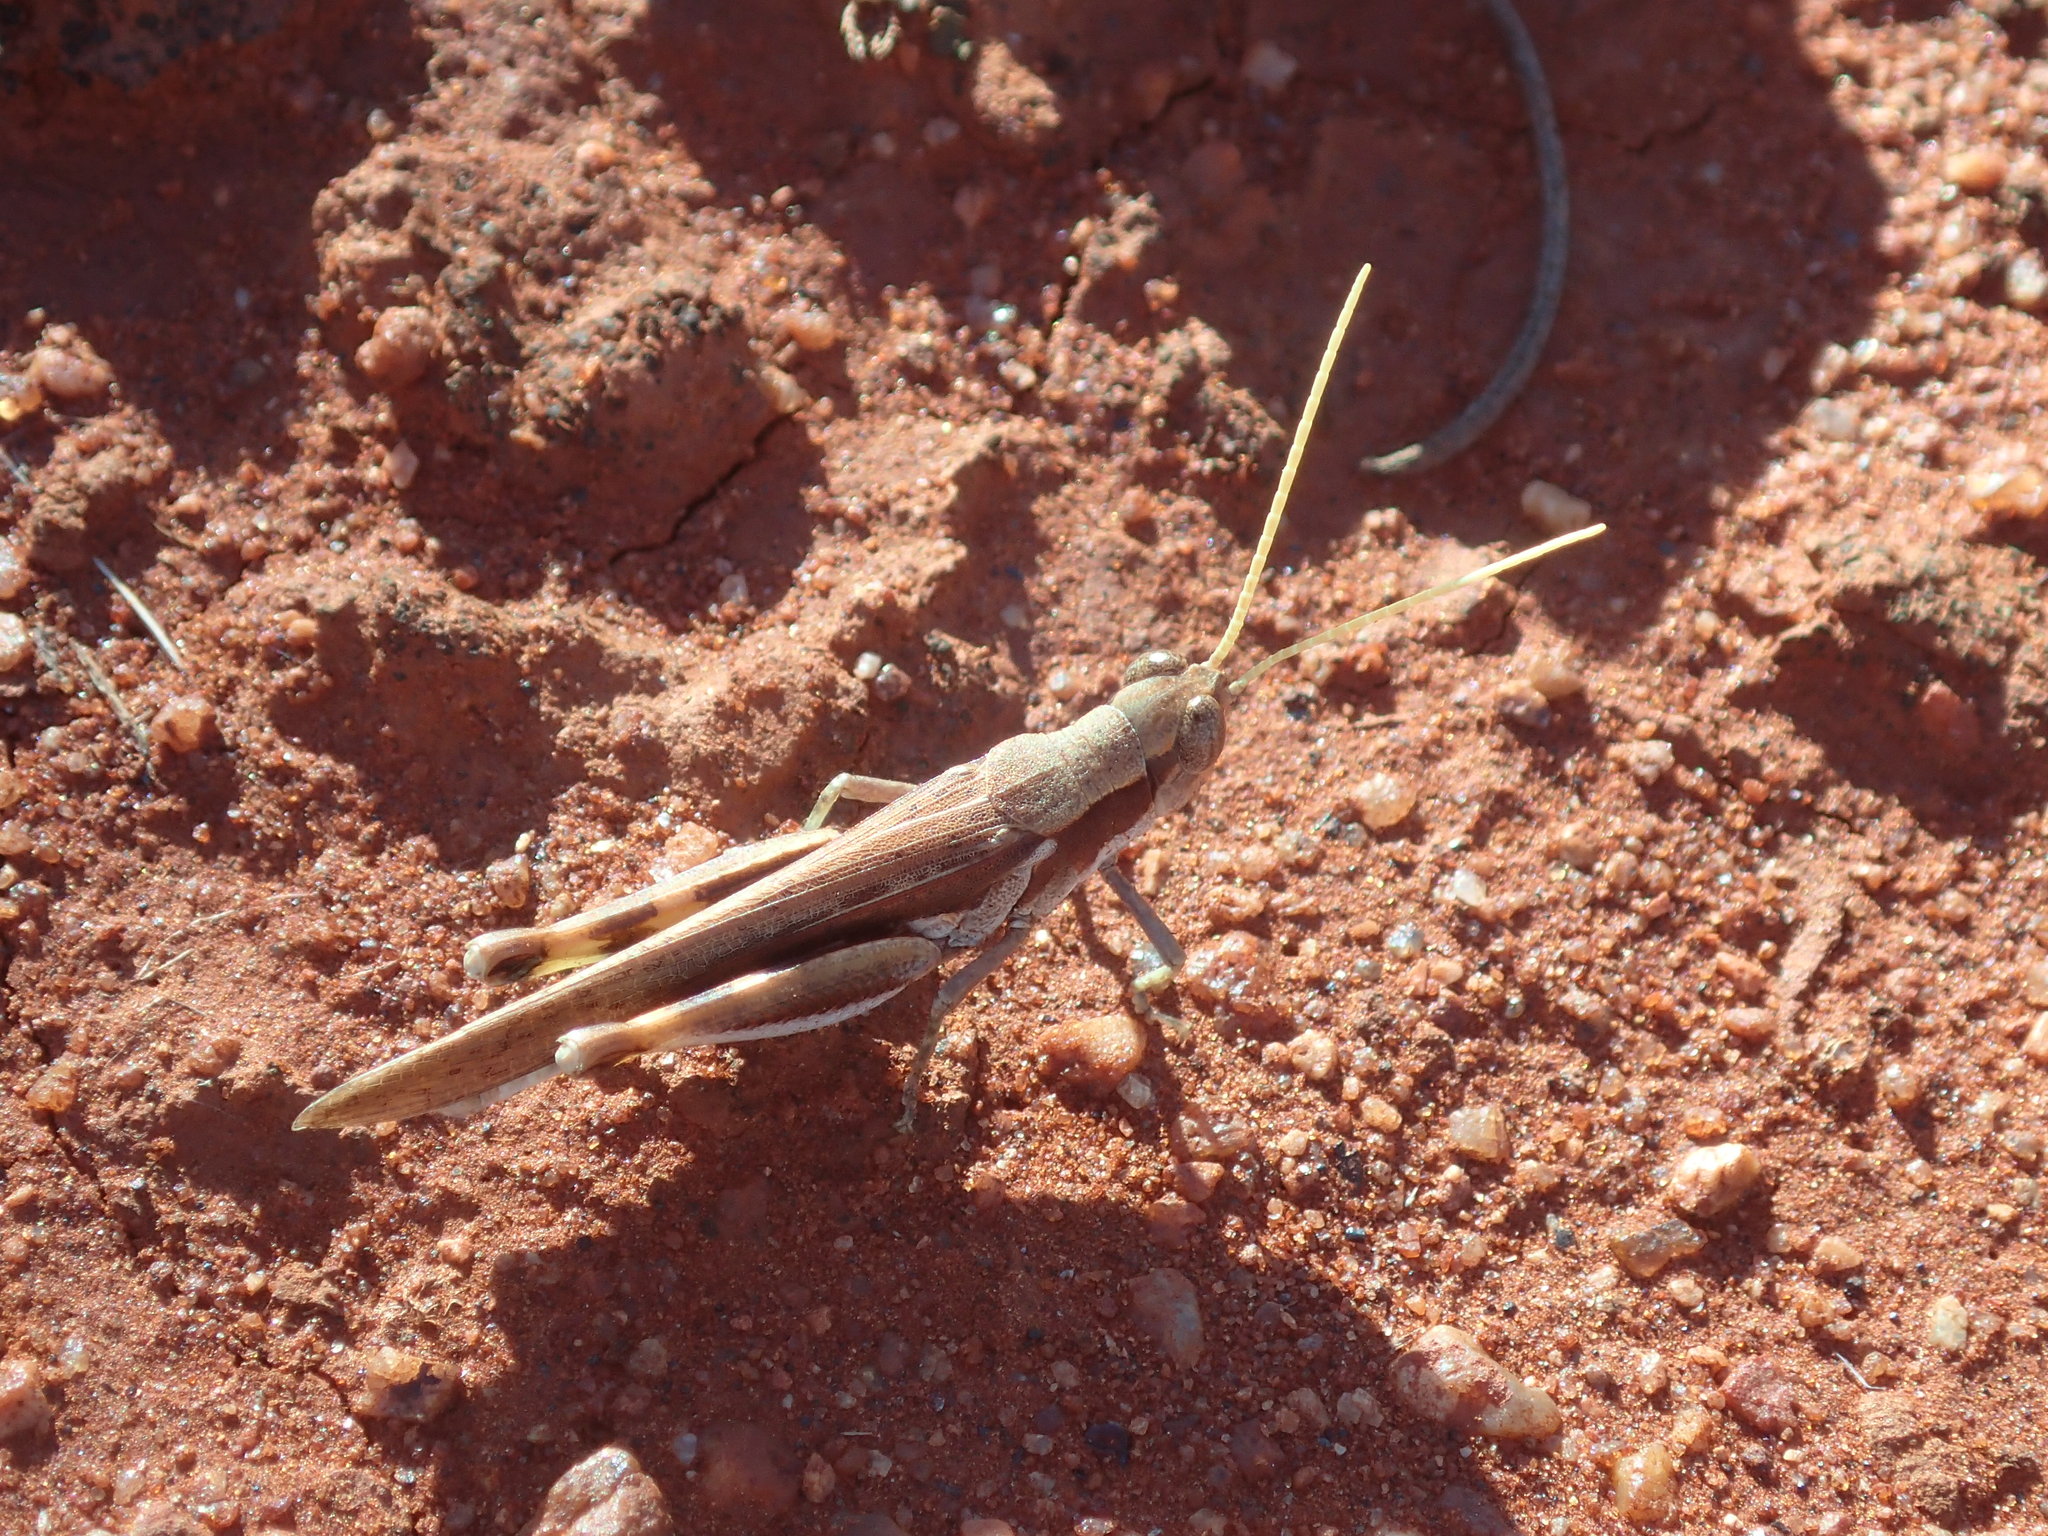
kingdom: Animalia
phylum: Arthropoda
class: Insecta
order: Orthoptera
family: Acrididae
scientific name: Acrididae
